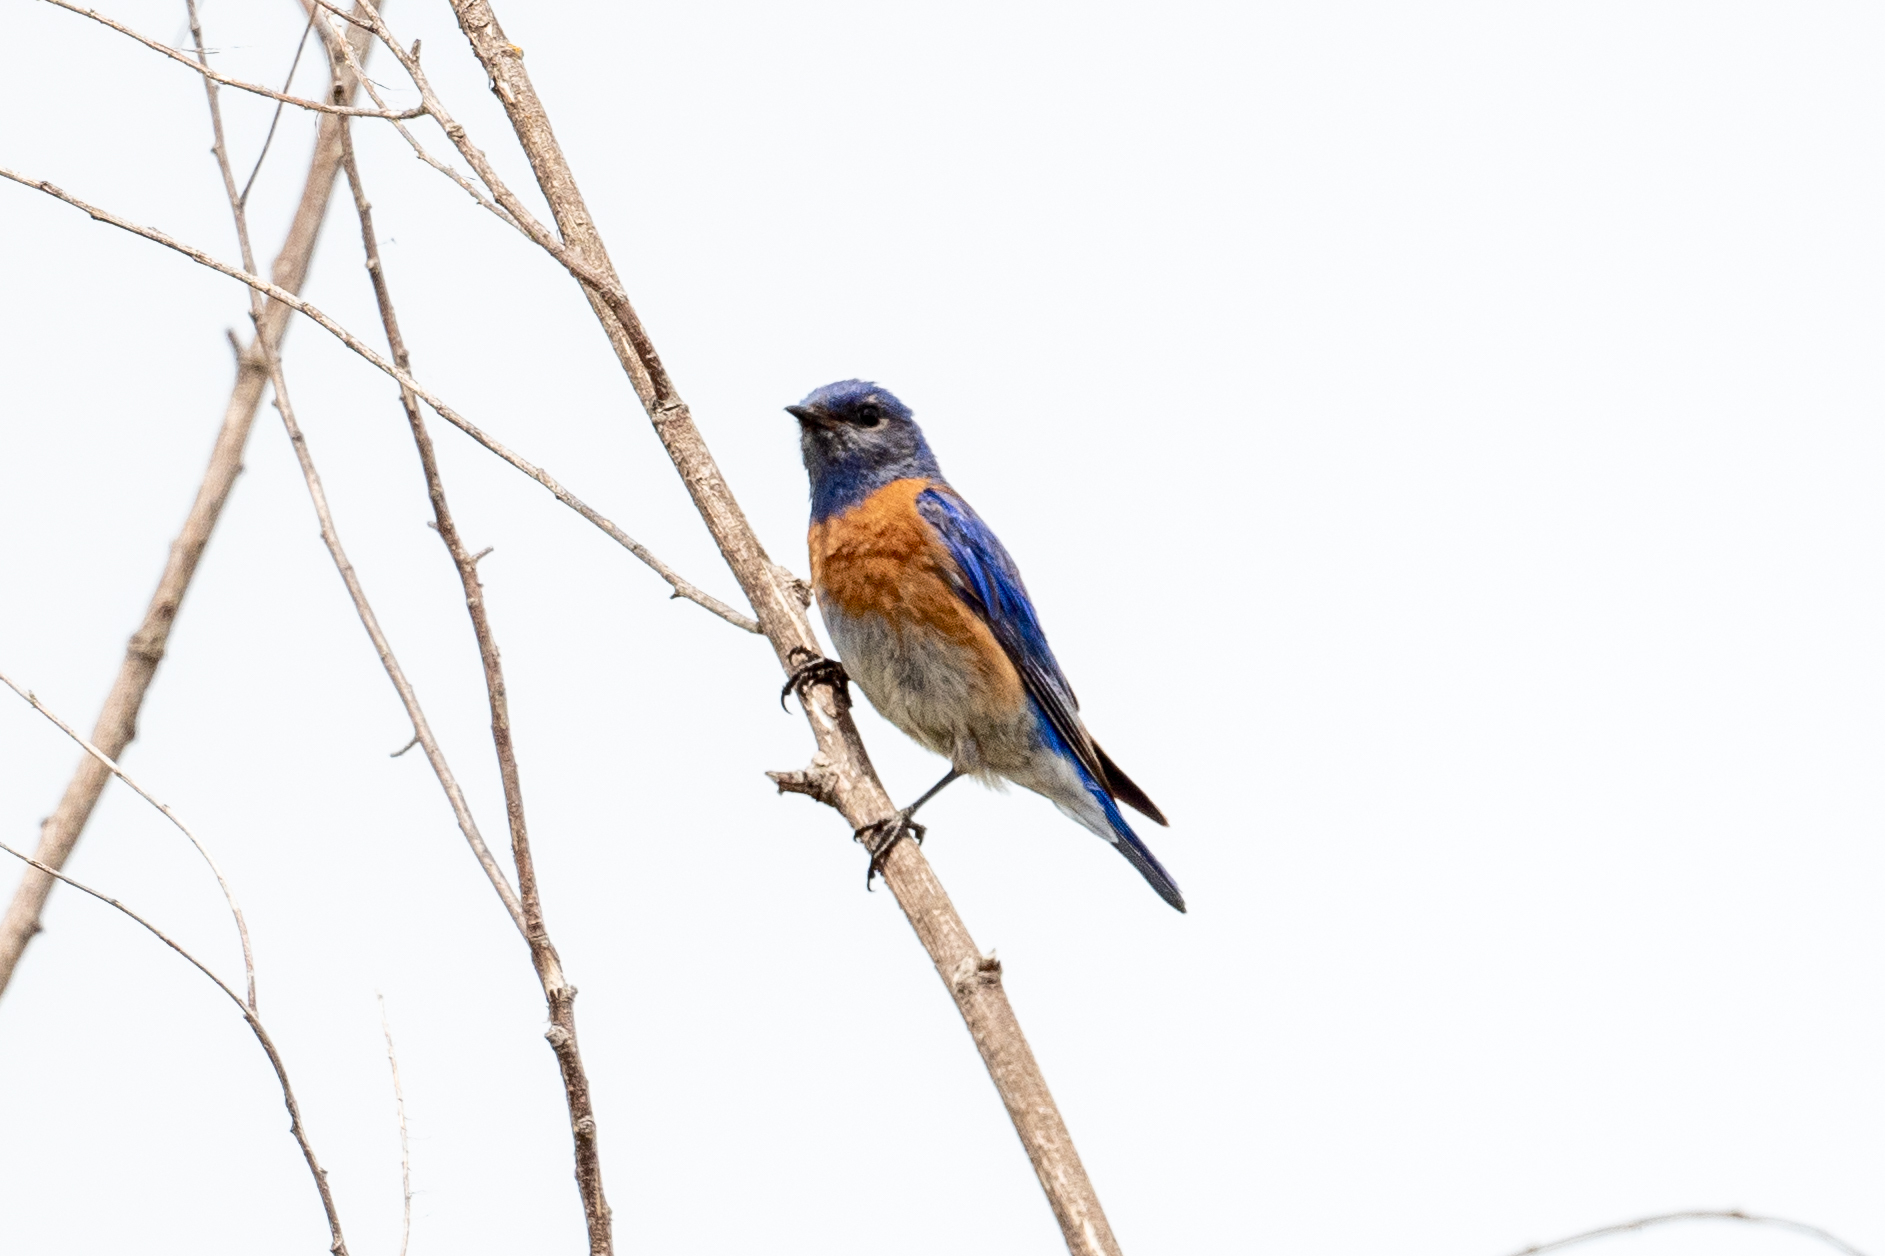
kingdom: Animalia
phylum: Chordata
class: Aves
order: Passeriformes
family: Turdidae
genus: Sialia
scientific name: Sialia mexicana
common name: Western bluebird
